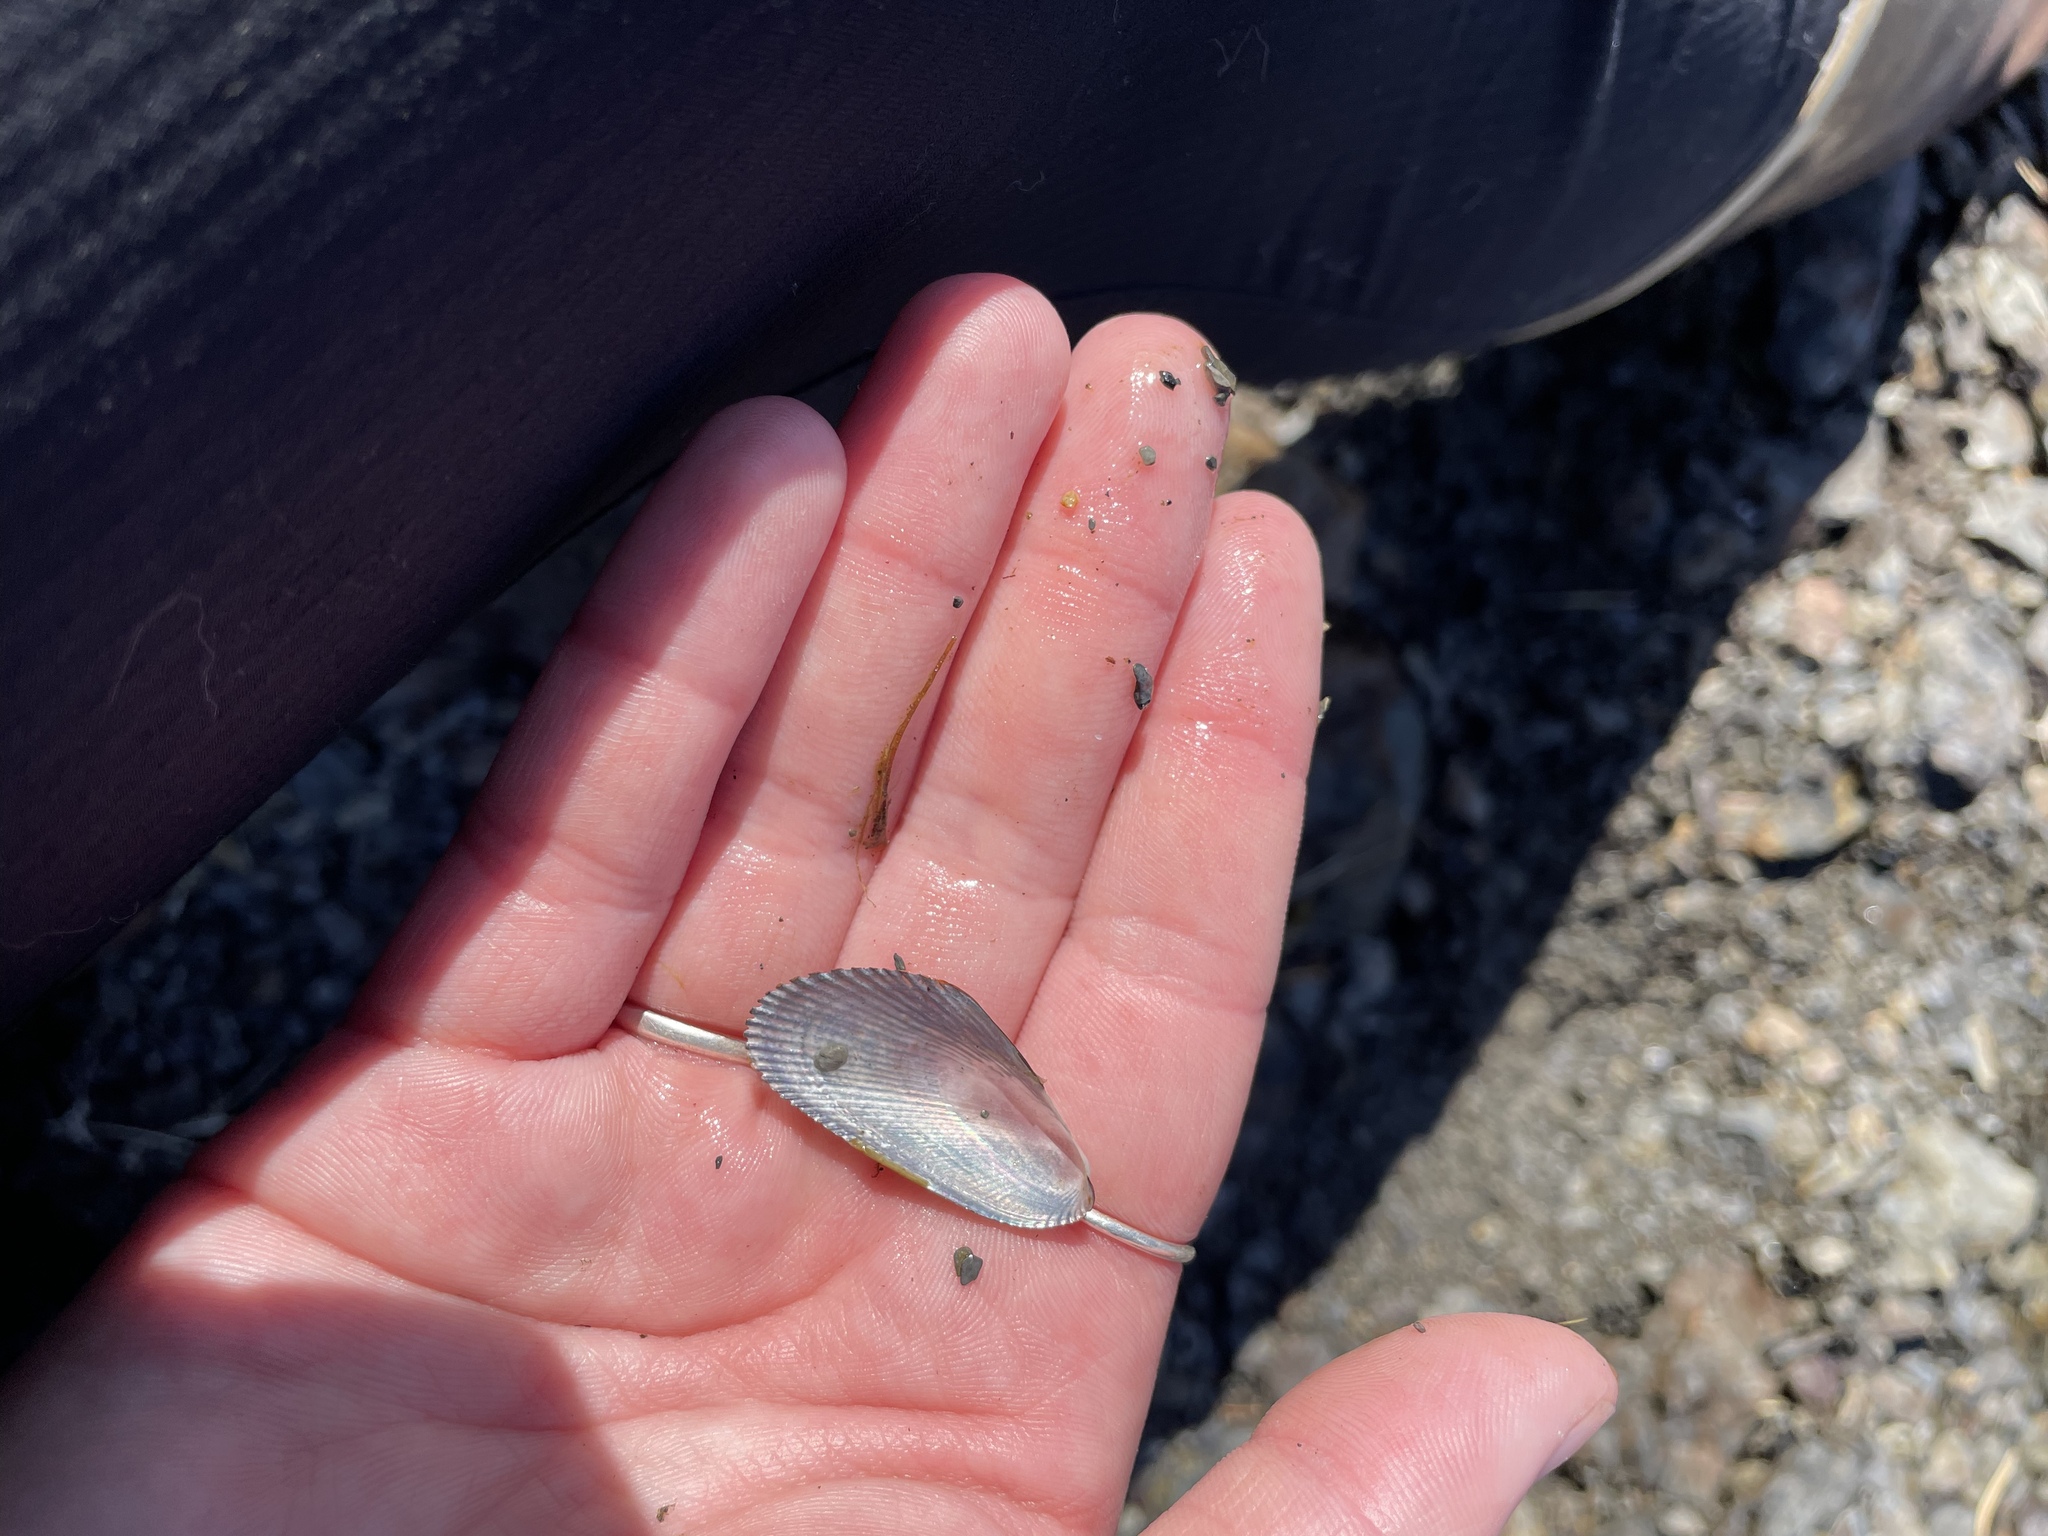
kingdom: Animalia
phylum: Mollusca
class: Bivalvia
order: Mytilida
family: Mytilidae
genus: Geukensia
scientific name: Geukensia demissa
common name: Ribbed mussel
